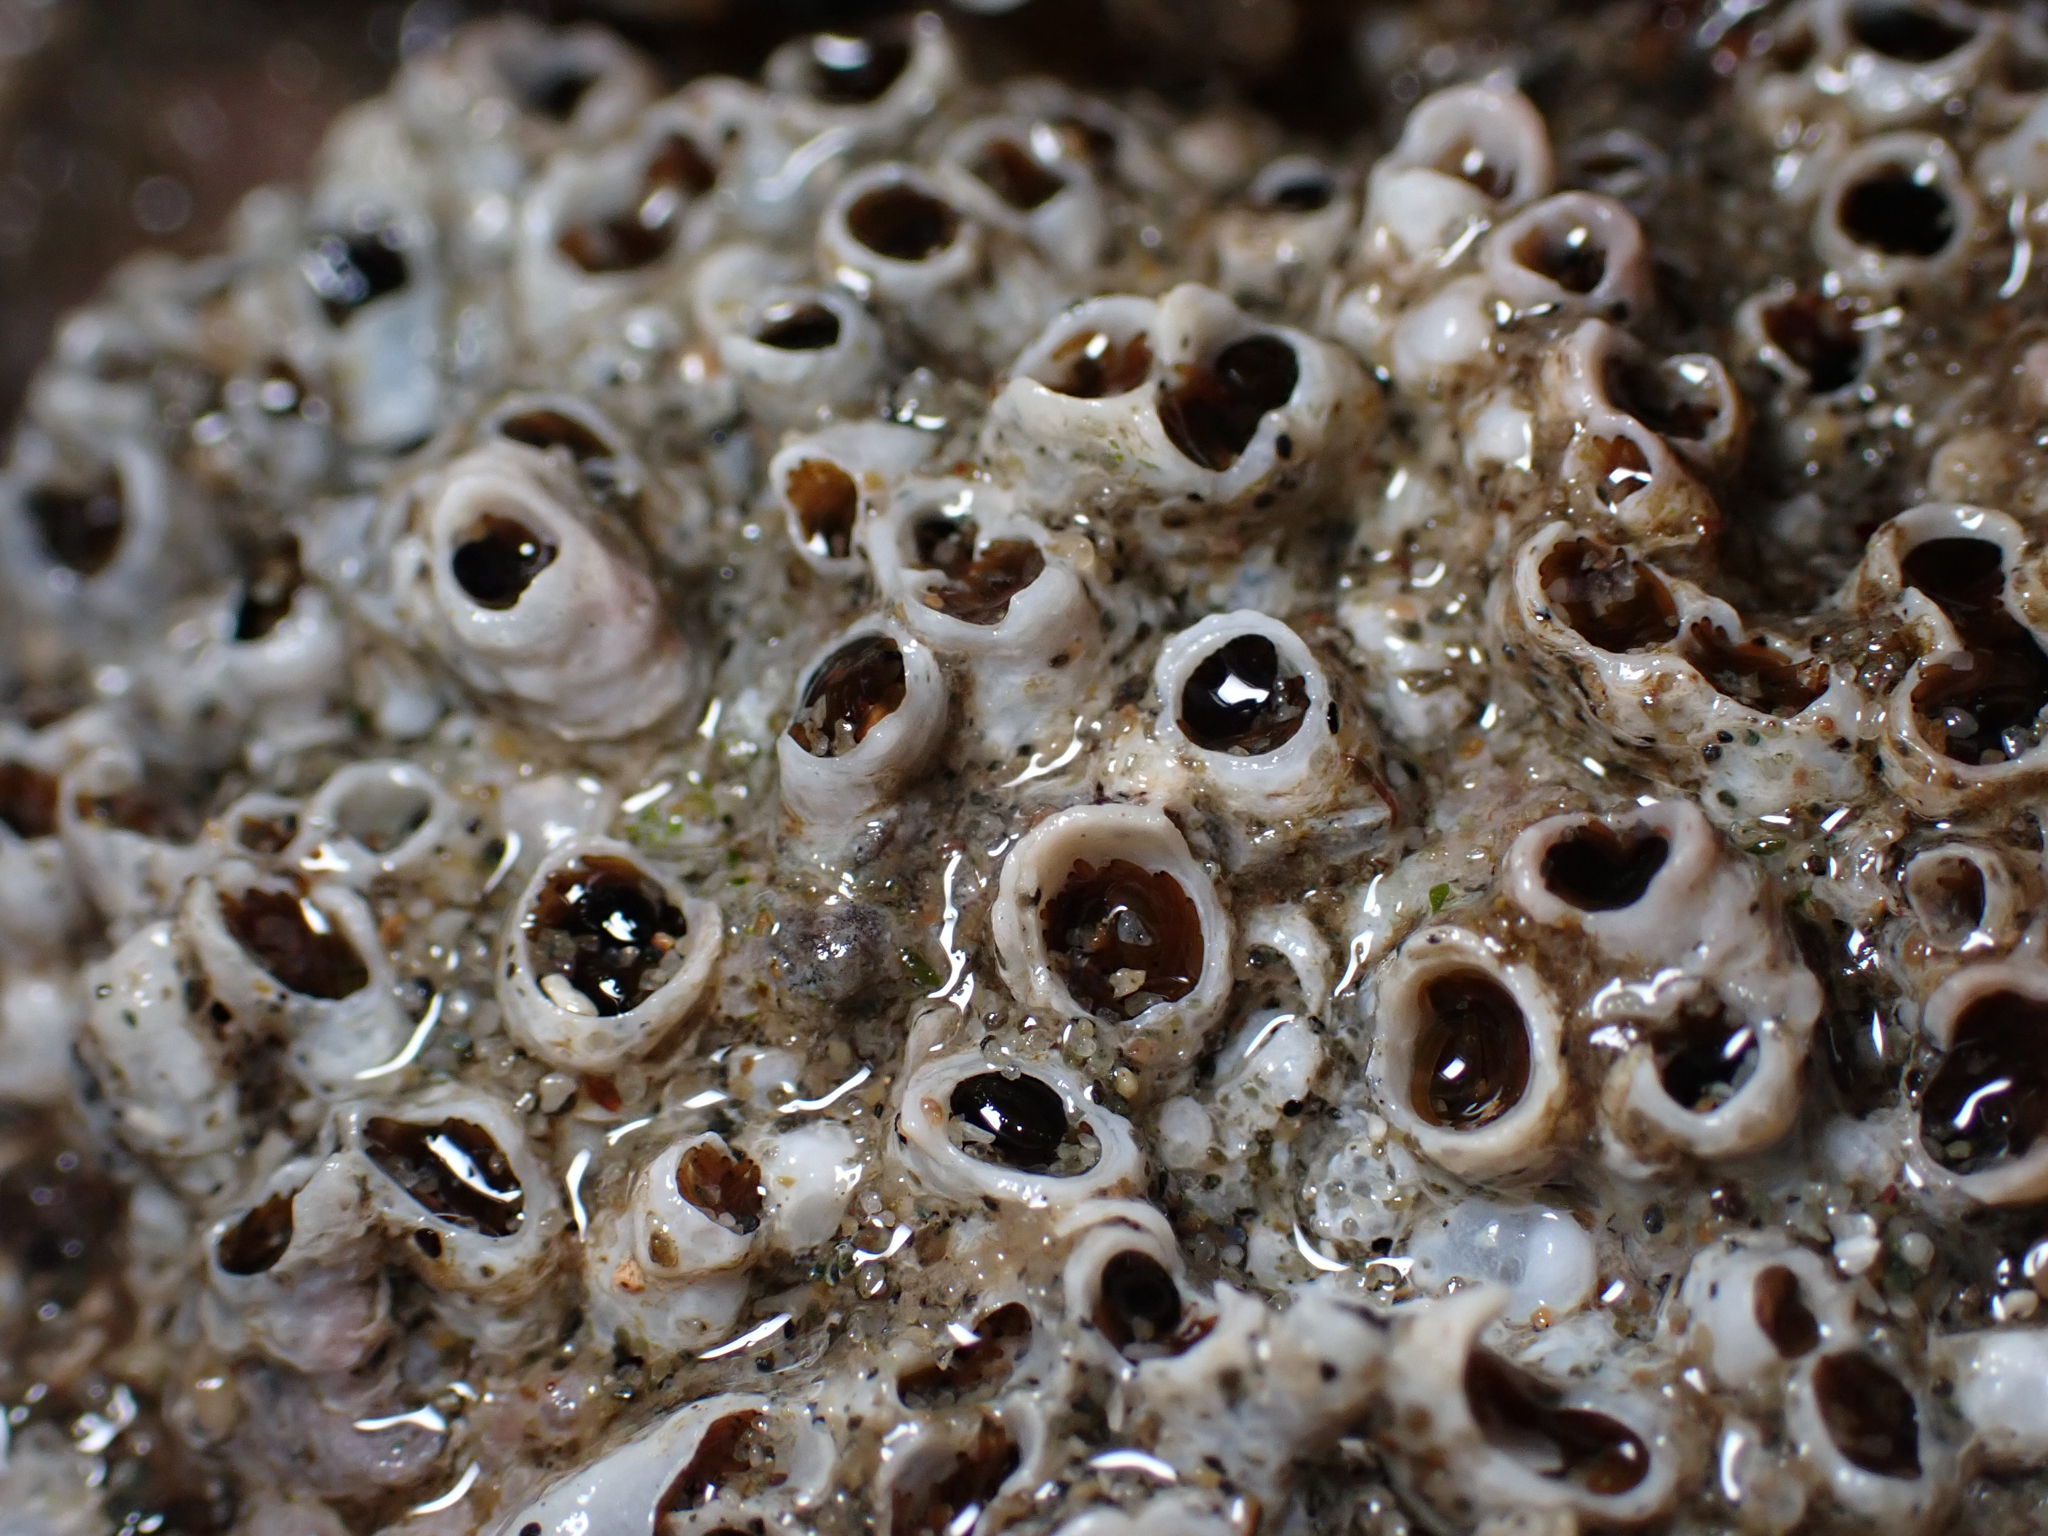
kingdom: Animalia
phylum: Annelida
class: Polychaeta
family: Cirratulidae
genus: Dodecaceria
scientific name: Dodecaceria pacifica
